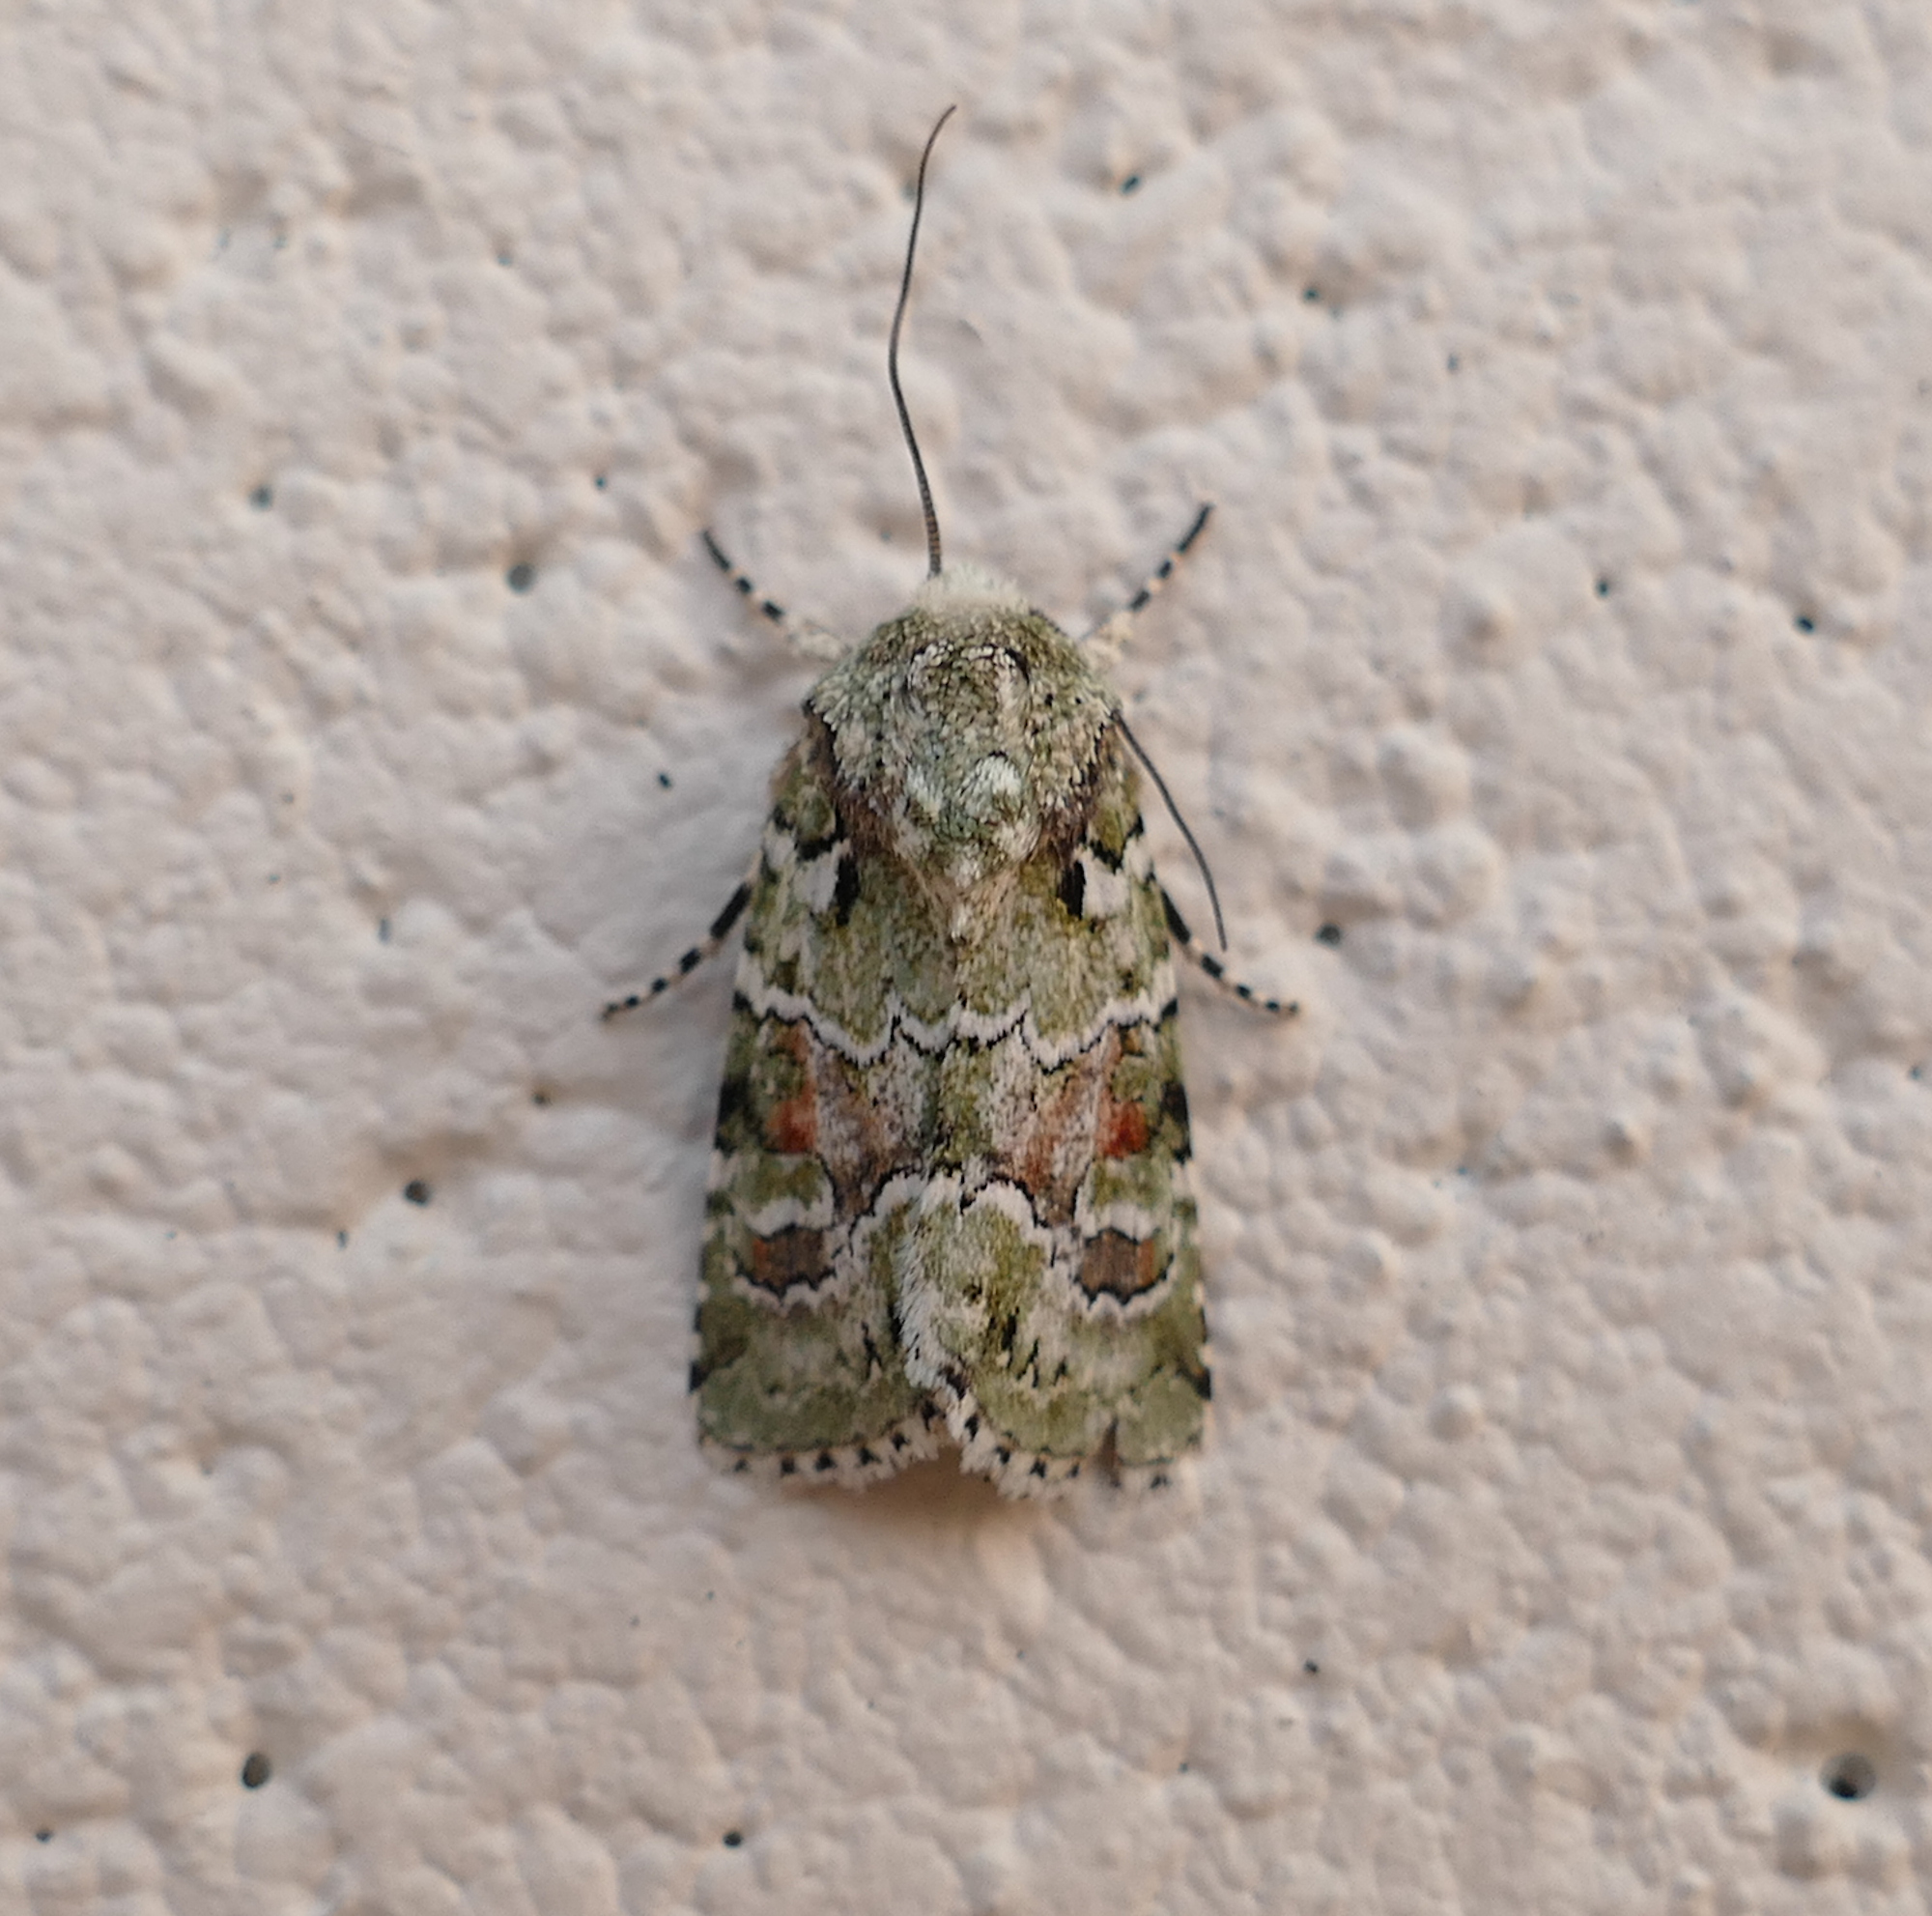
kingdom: Animalia
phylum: Arthropoda
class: Insecta
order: Lepidoptera
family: Noctuidae
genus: Lacinipolia
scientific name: Lacinipolia laudabilis
